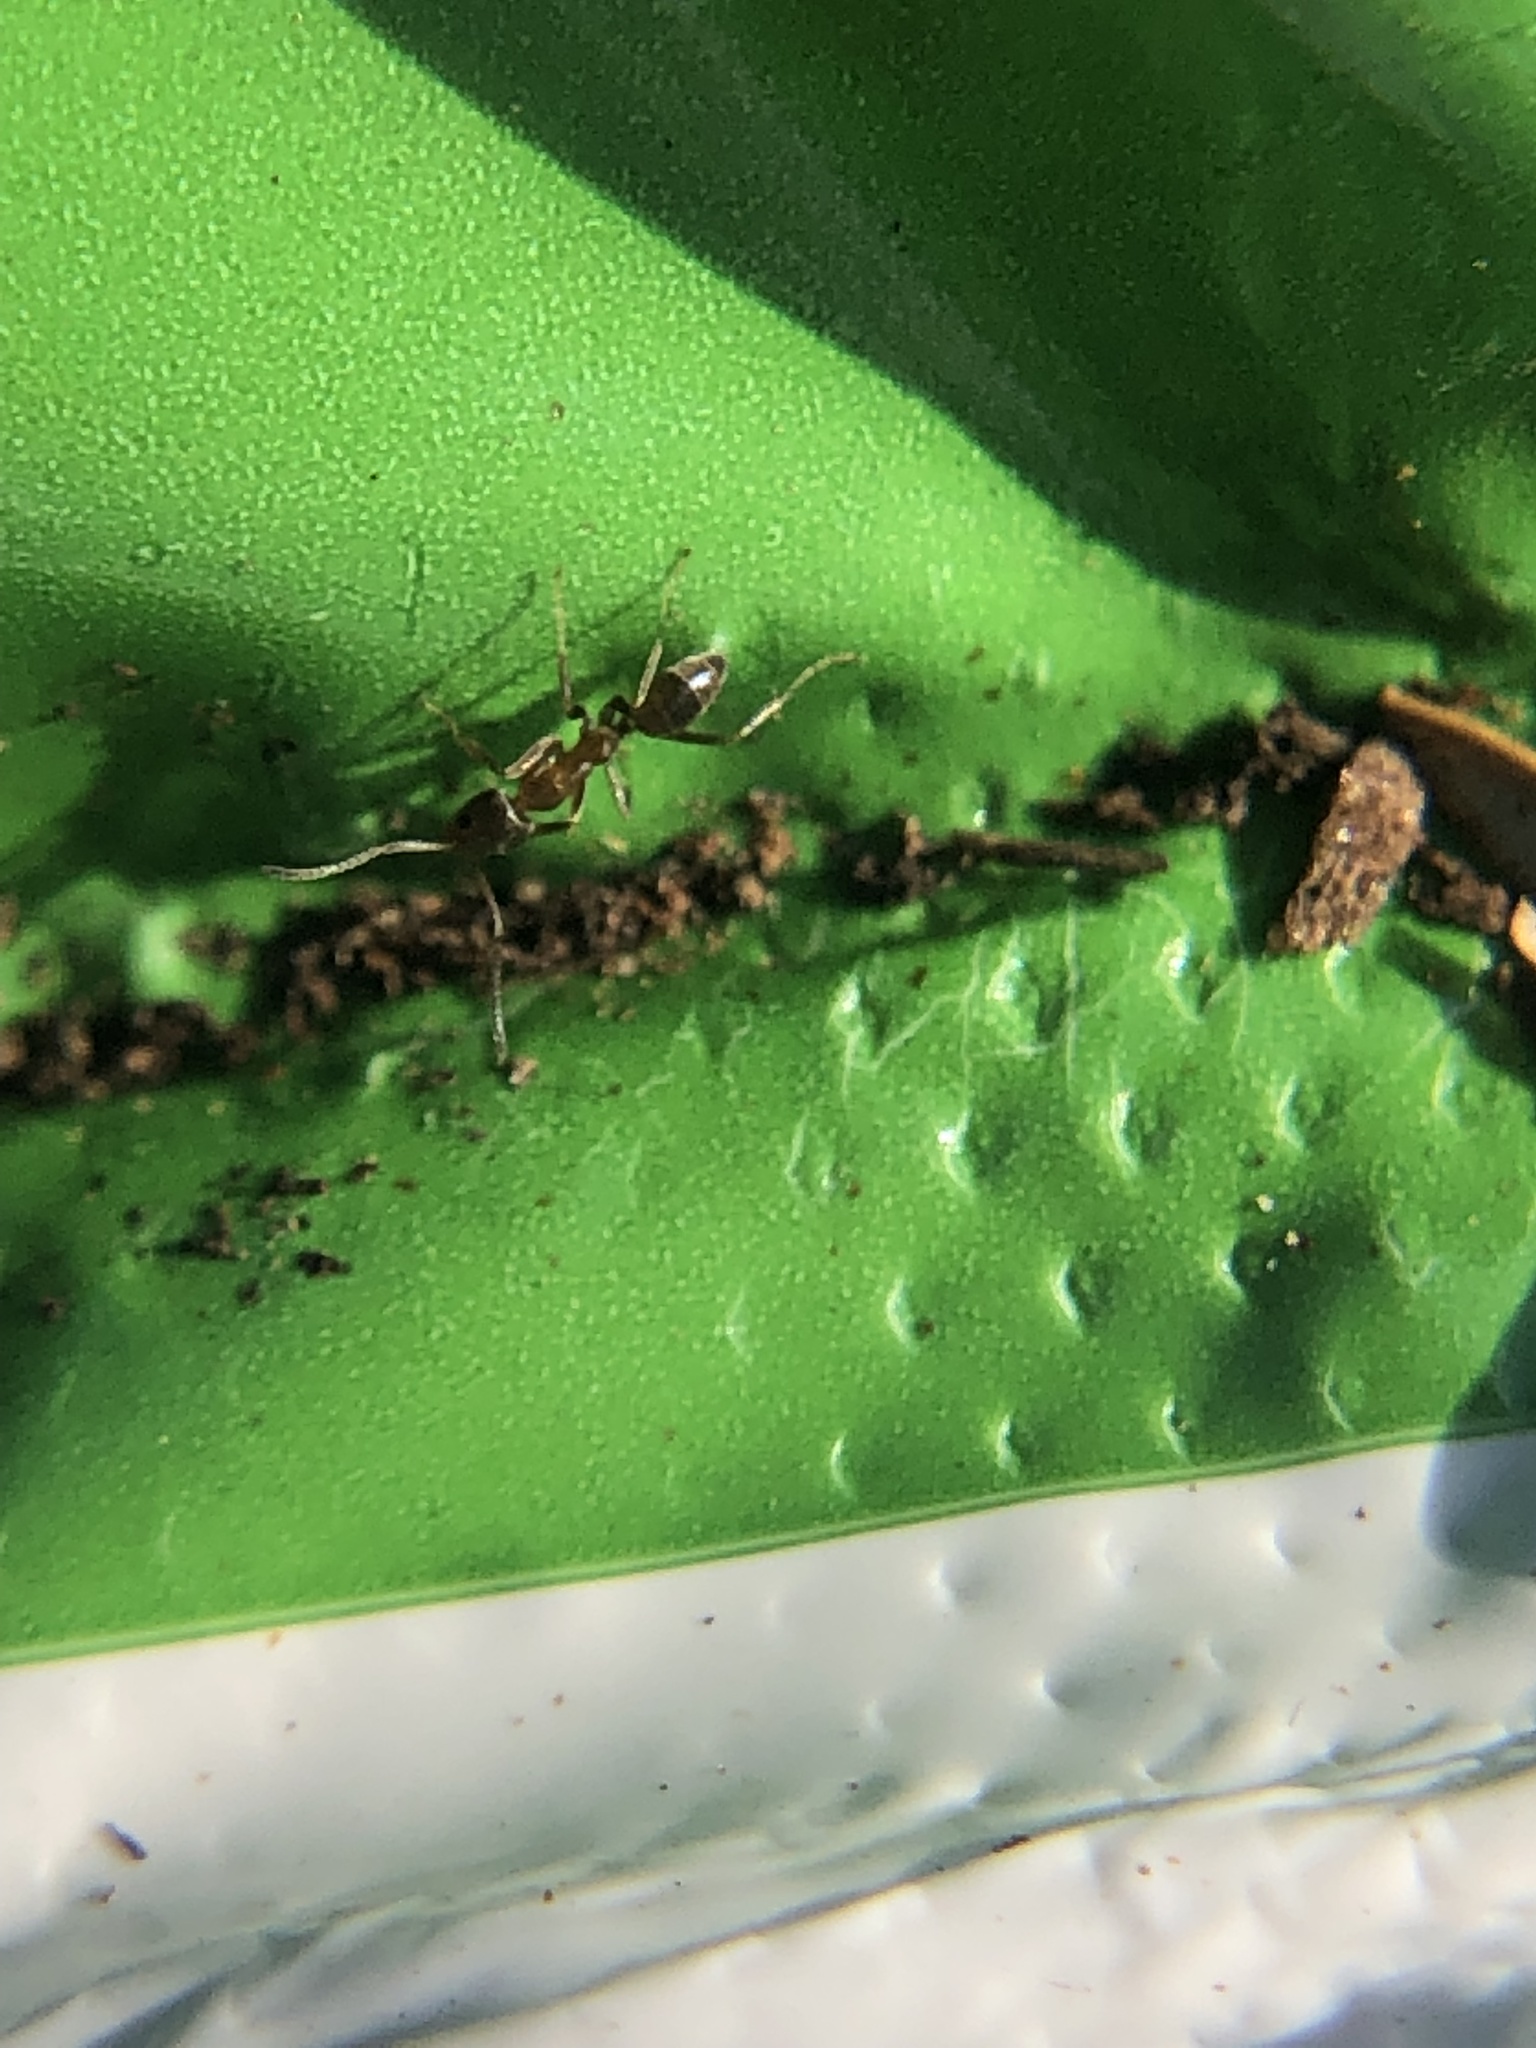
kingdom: Animalia
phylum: Arthropoda
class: Insecta
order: Hymenoptera
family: Formicidae
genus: Linepithema
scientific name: Linepithema humile
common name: Argentine ant
